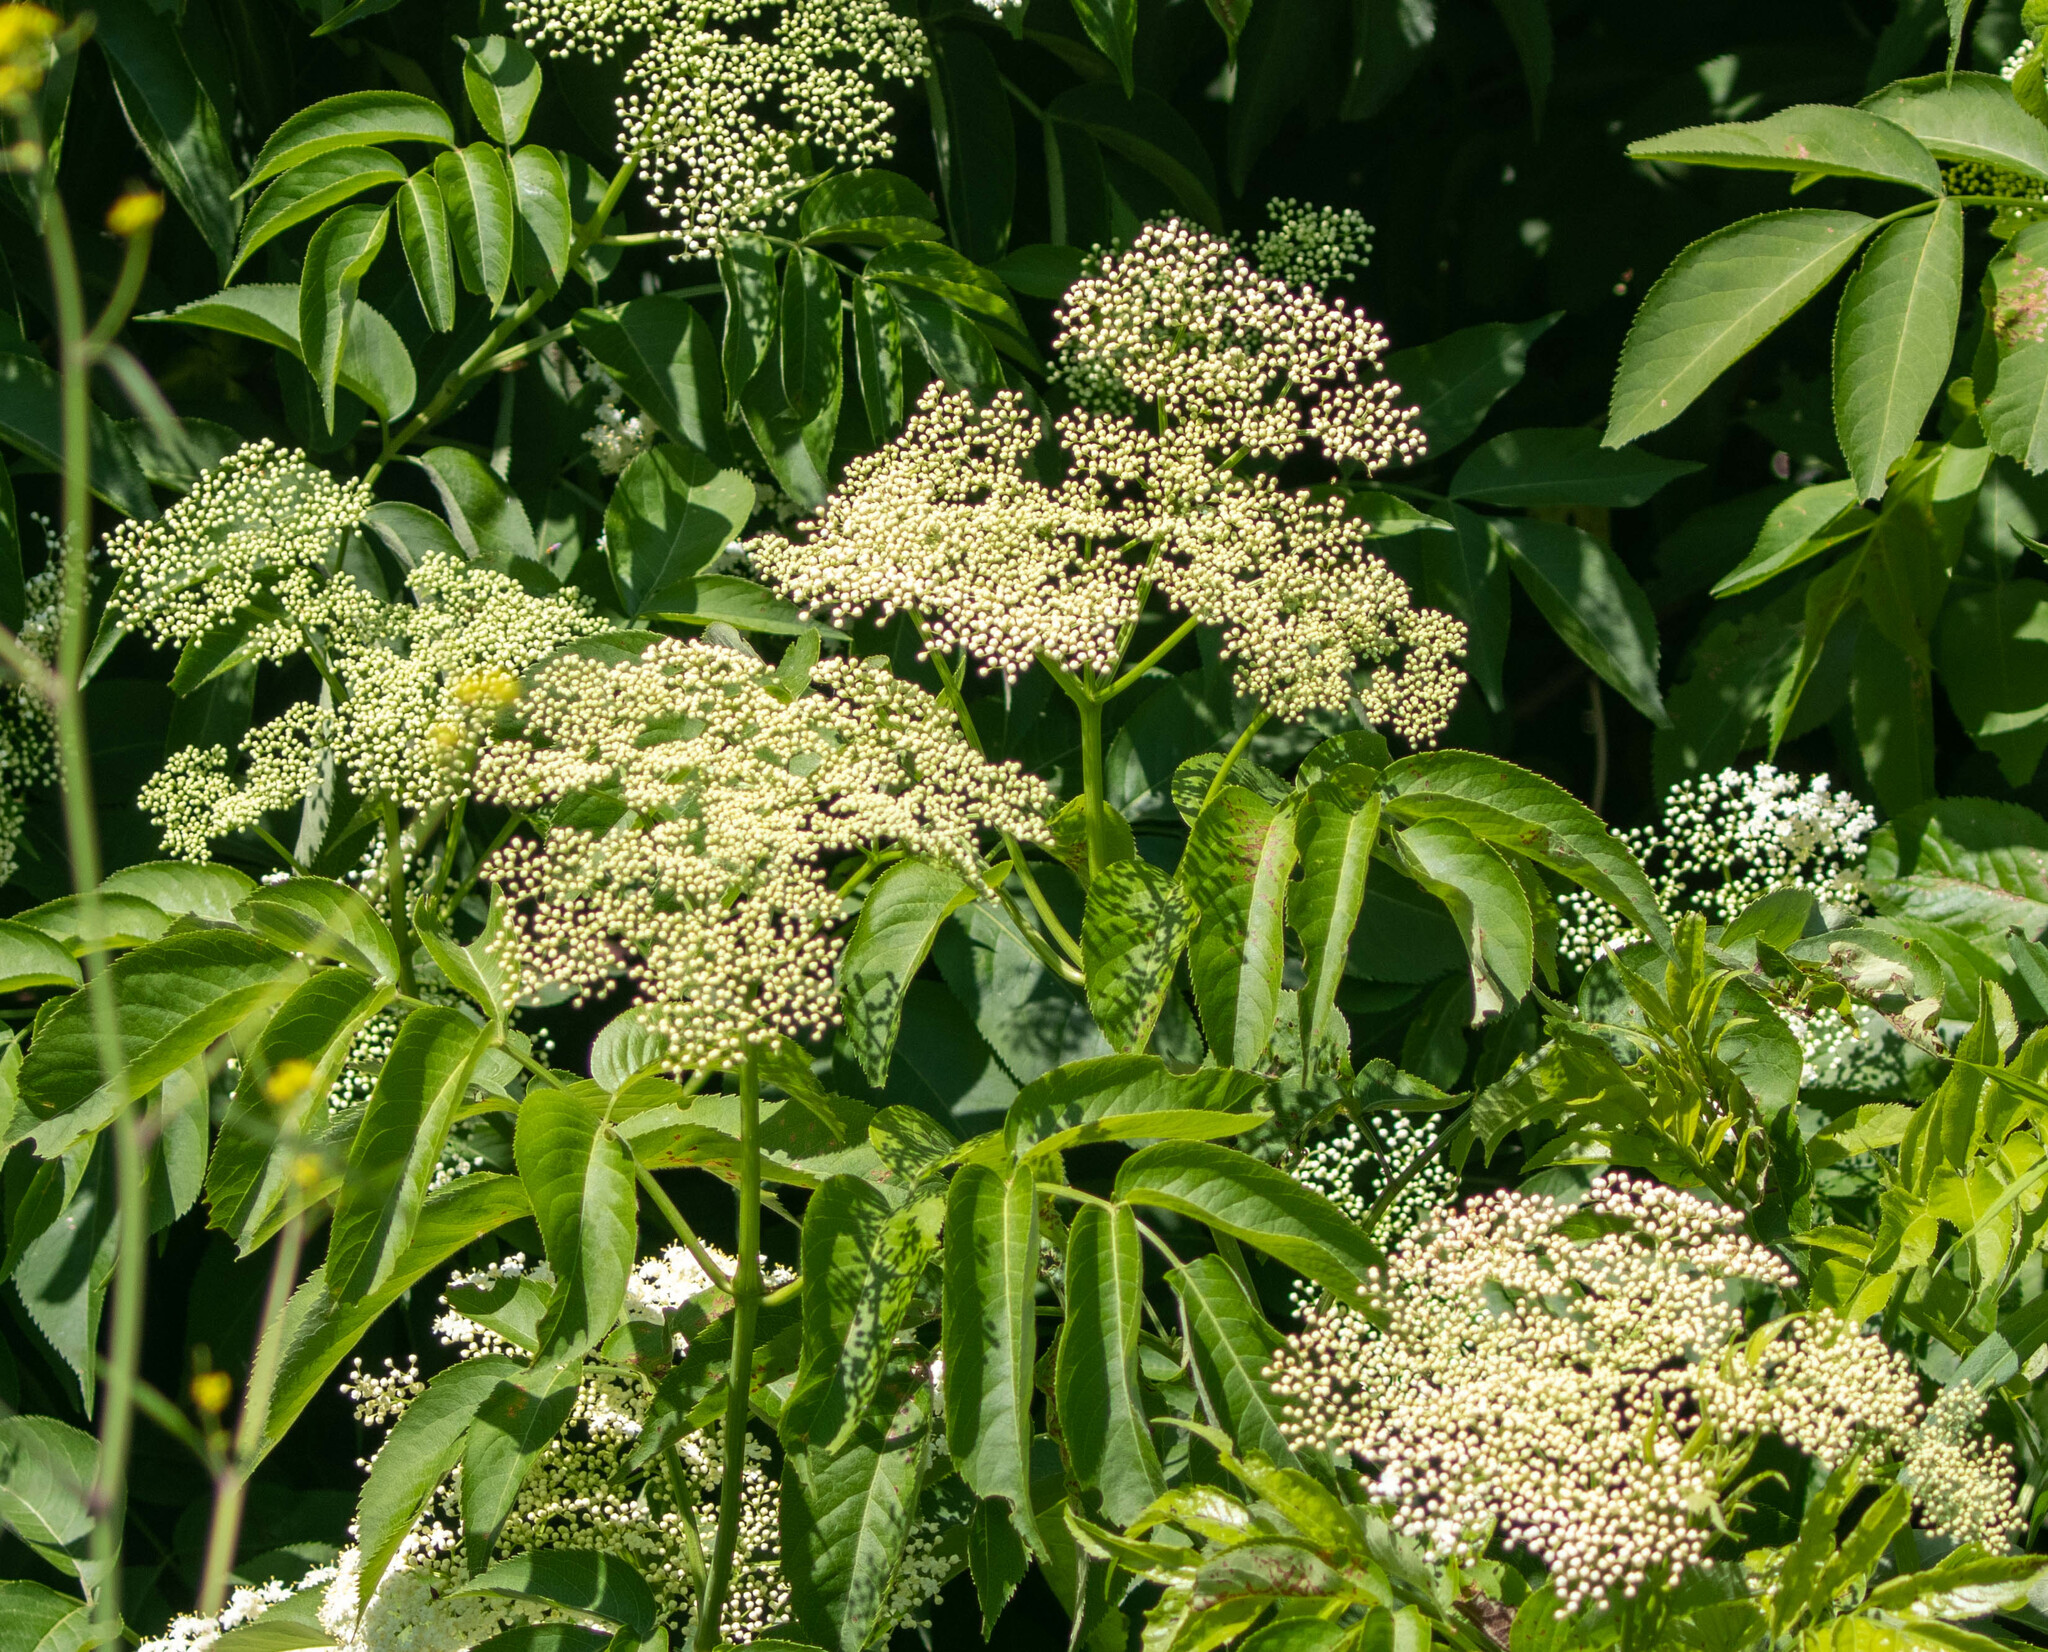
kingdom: Plantae
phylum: Tracheophyta
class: Magnoliopsida
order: Dipsacales
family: Viburnaceae
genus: Sambucus
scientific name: Sambucus canadensis
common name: American elder
